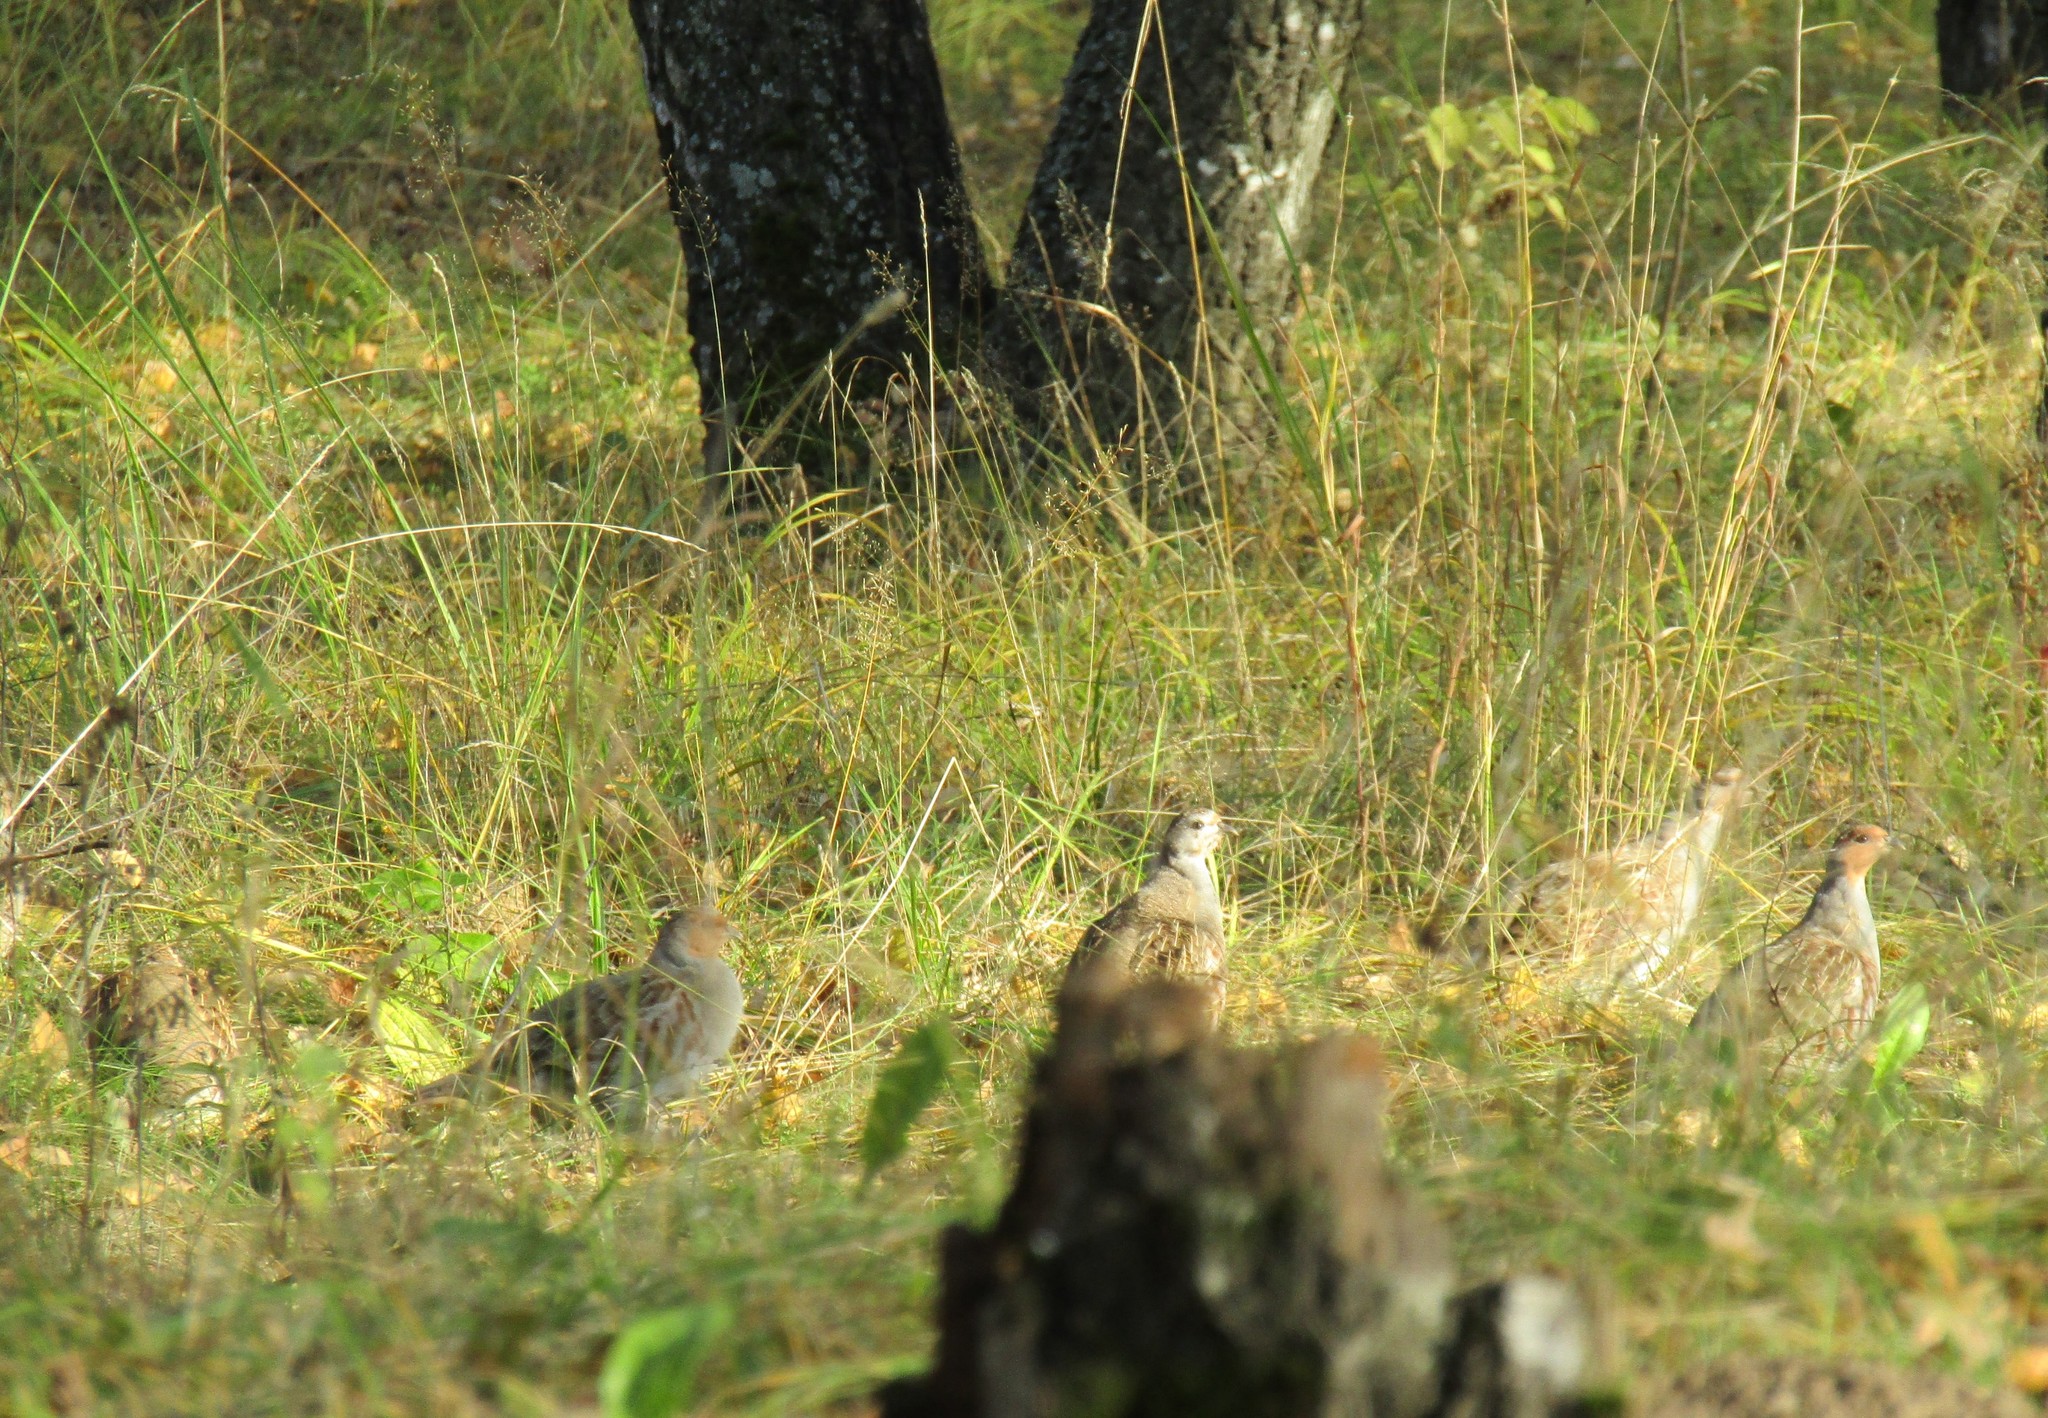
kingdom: Animalia
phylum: Chordata
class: Aves
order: Galliformes
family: Phasianidae
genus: Perdix
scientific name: Perdix perdix
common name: Grey partridge
